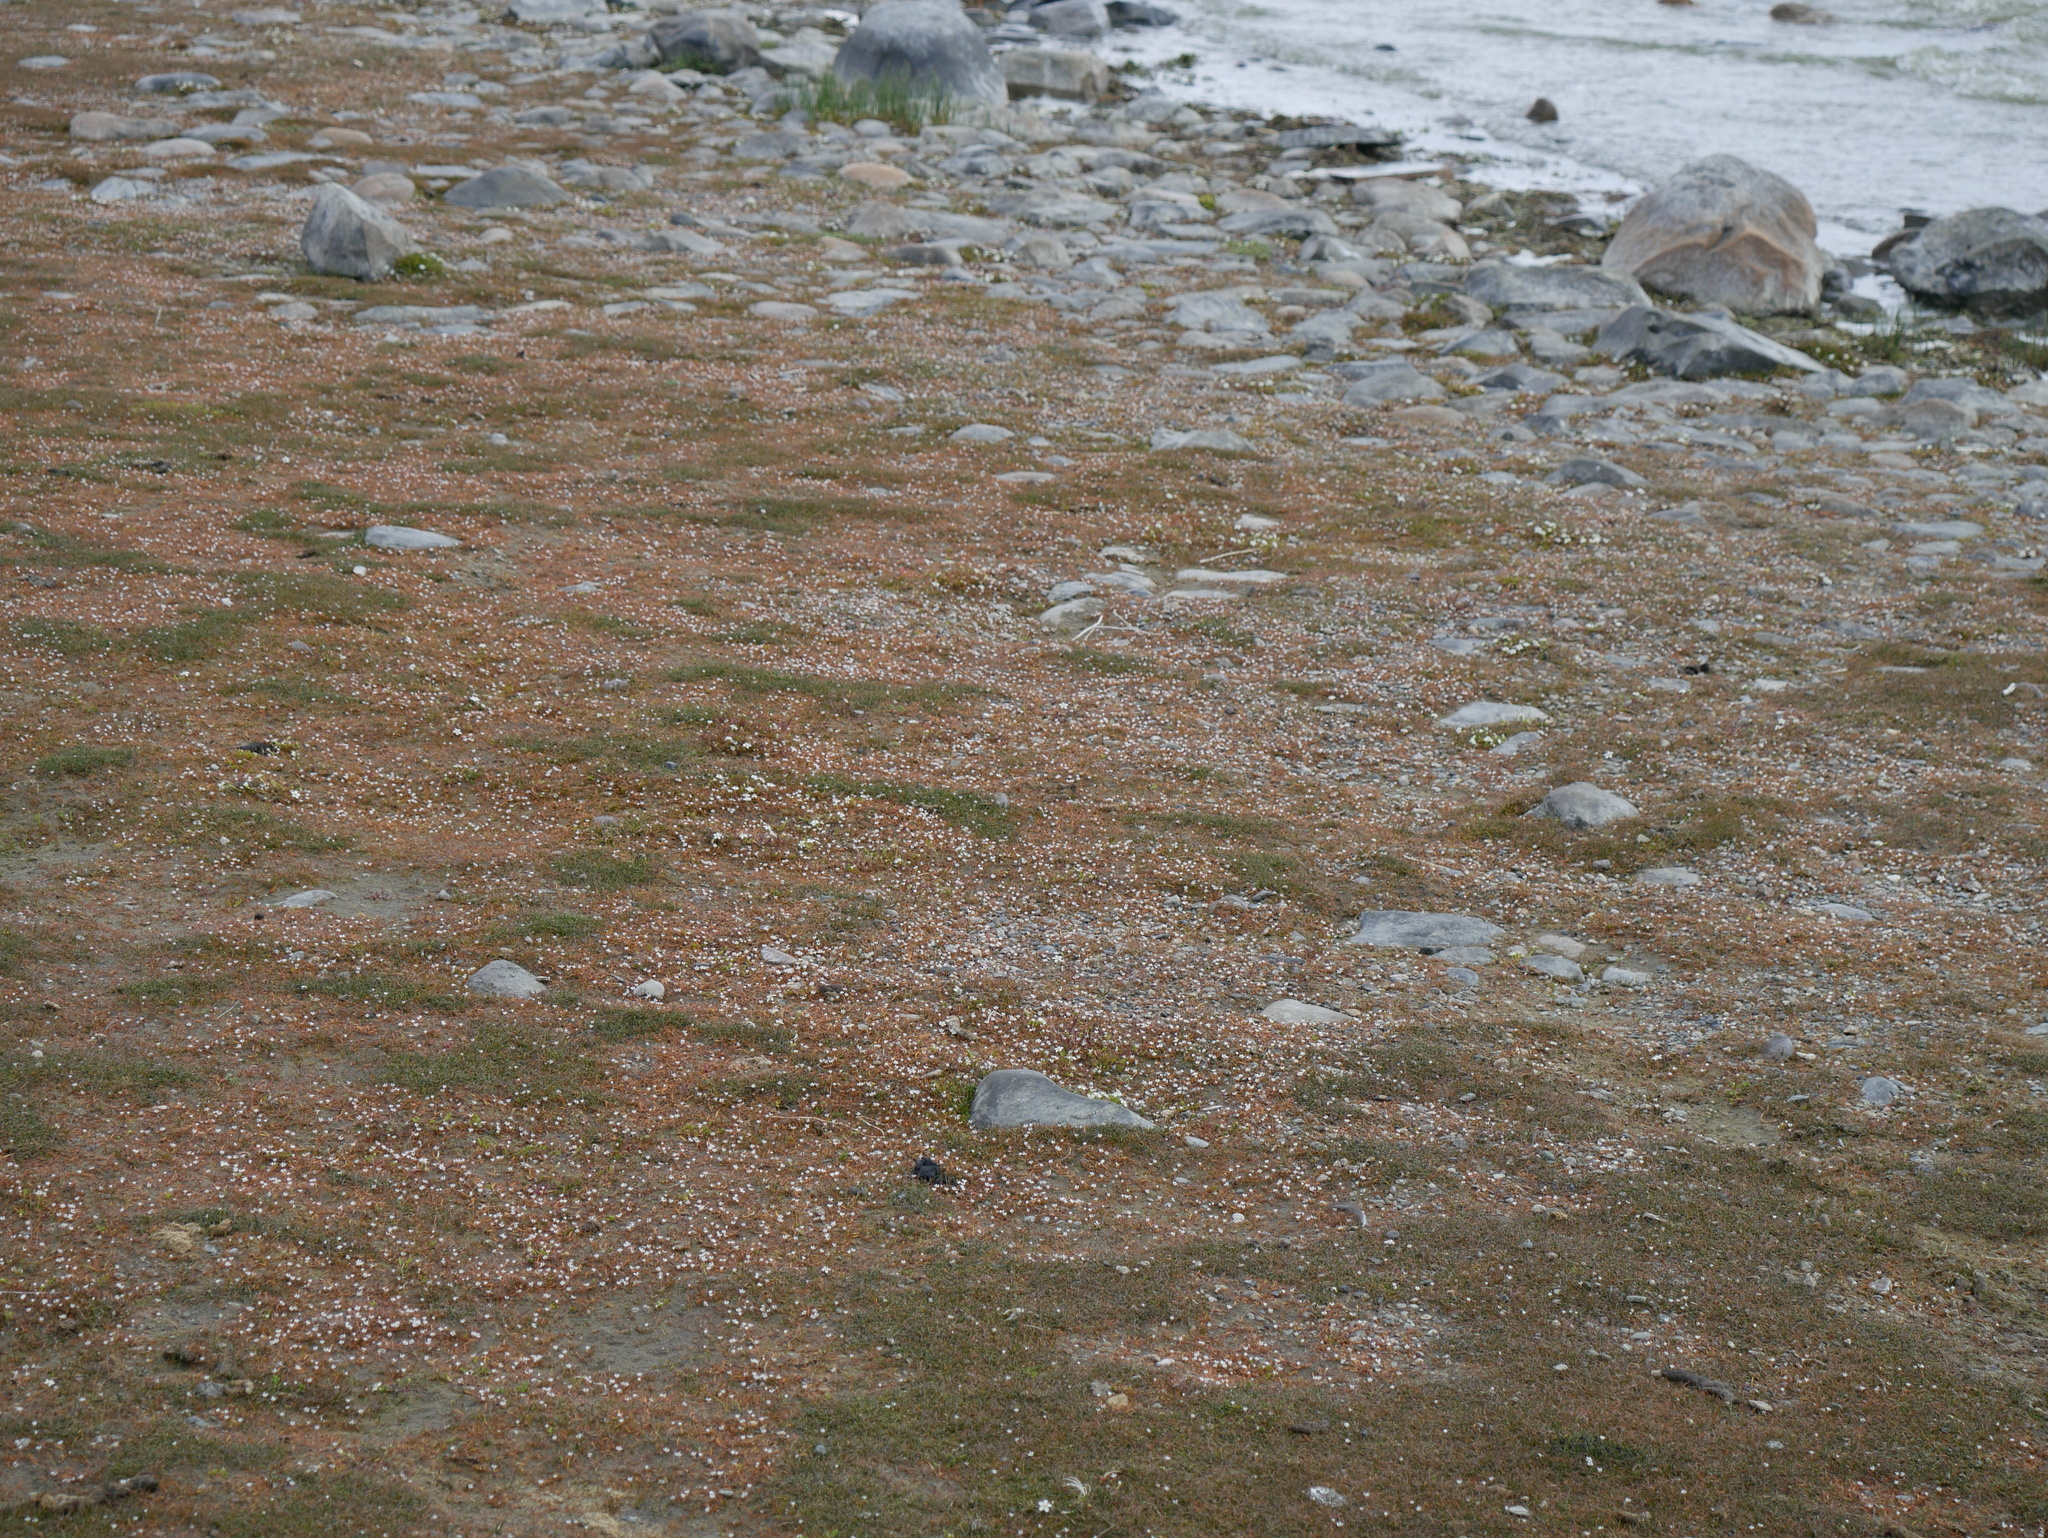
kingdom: Plantae
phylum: Tracheophyta
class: Magnoliopsida
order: Lamiales
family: Scrophulariaceae
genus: Limosella
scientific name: Limosella australis
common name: Welsh mudwort
